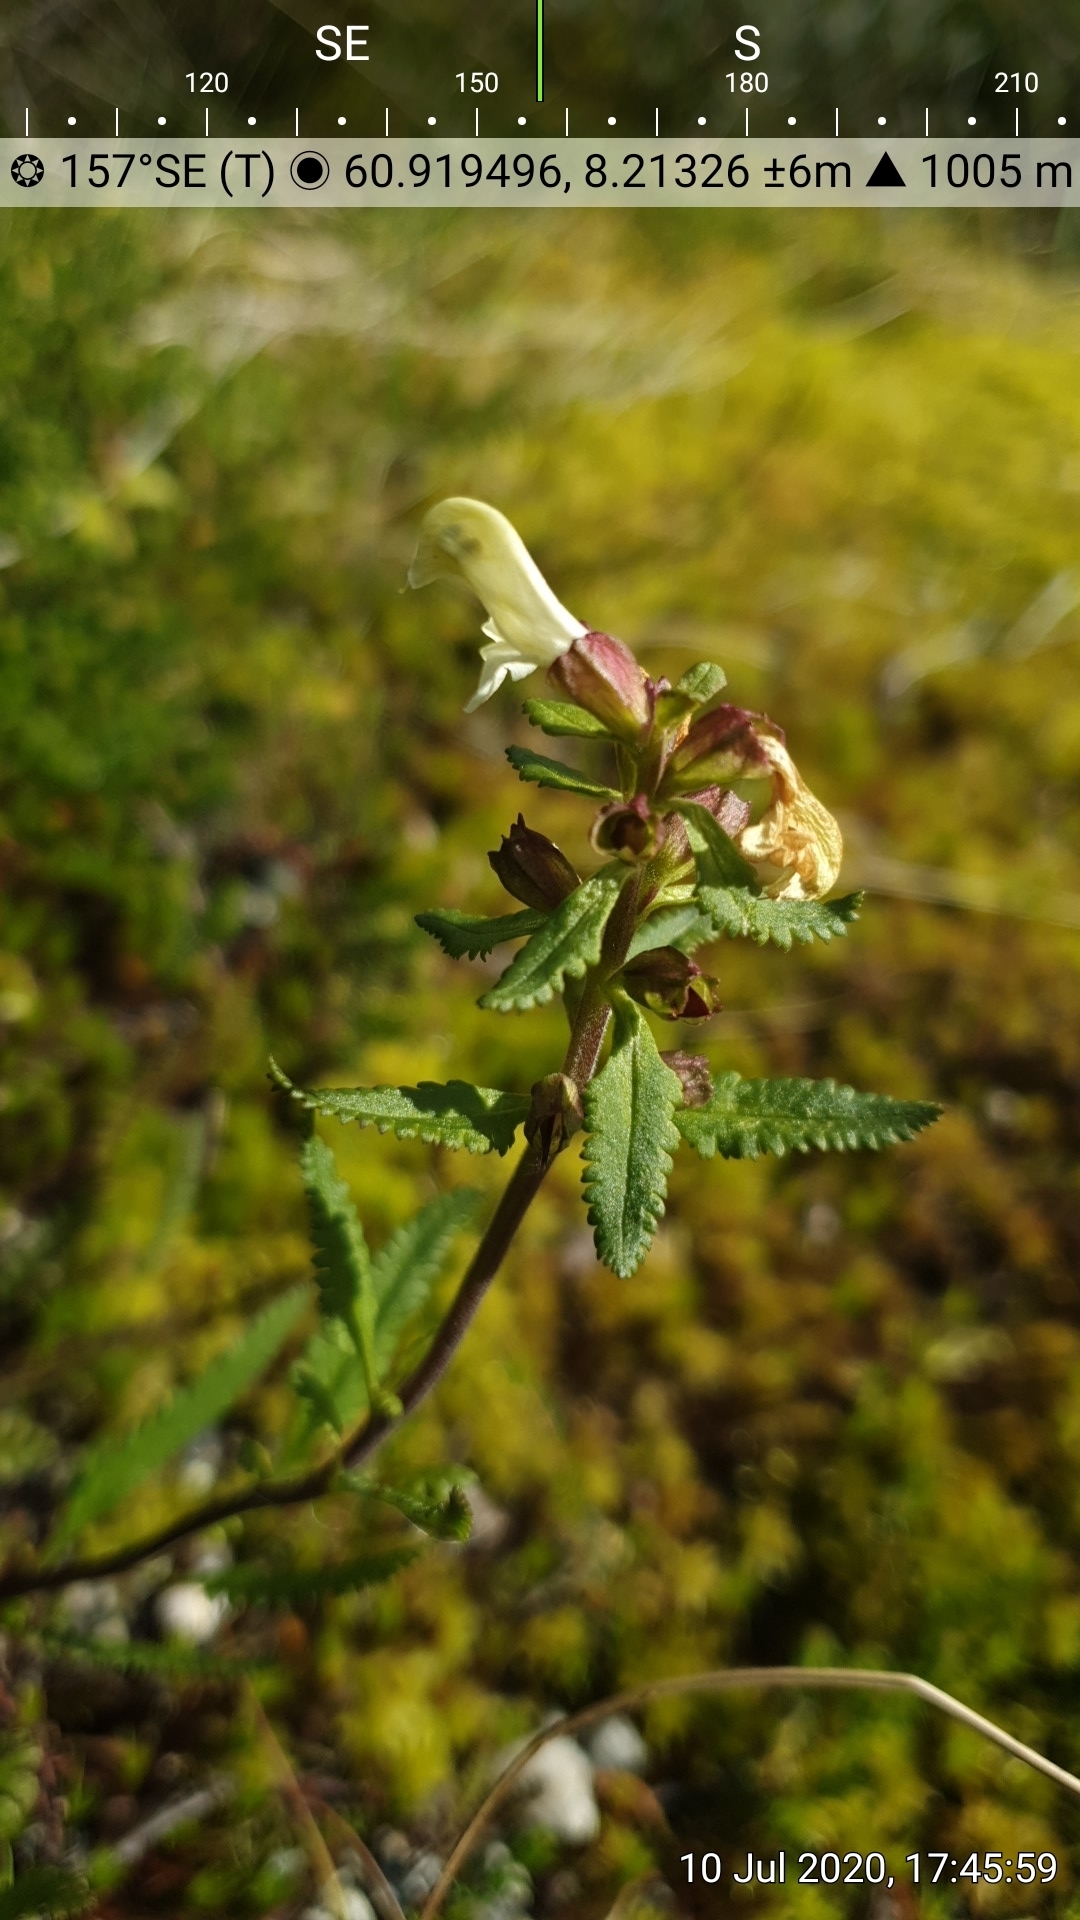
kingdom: Plantae
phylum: Tracheophyta
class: Magnoliopsida
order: Lamiales
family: Orobanchaceae
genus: Pedicularis
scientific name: Pedicularis lapponica
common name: Lapland lousewort
